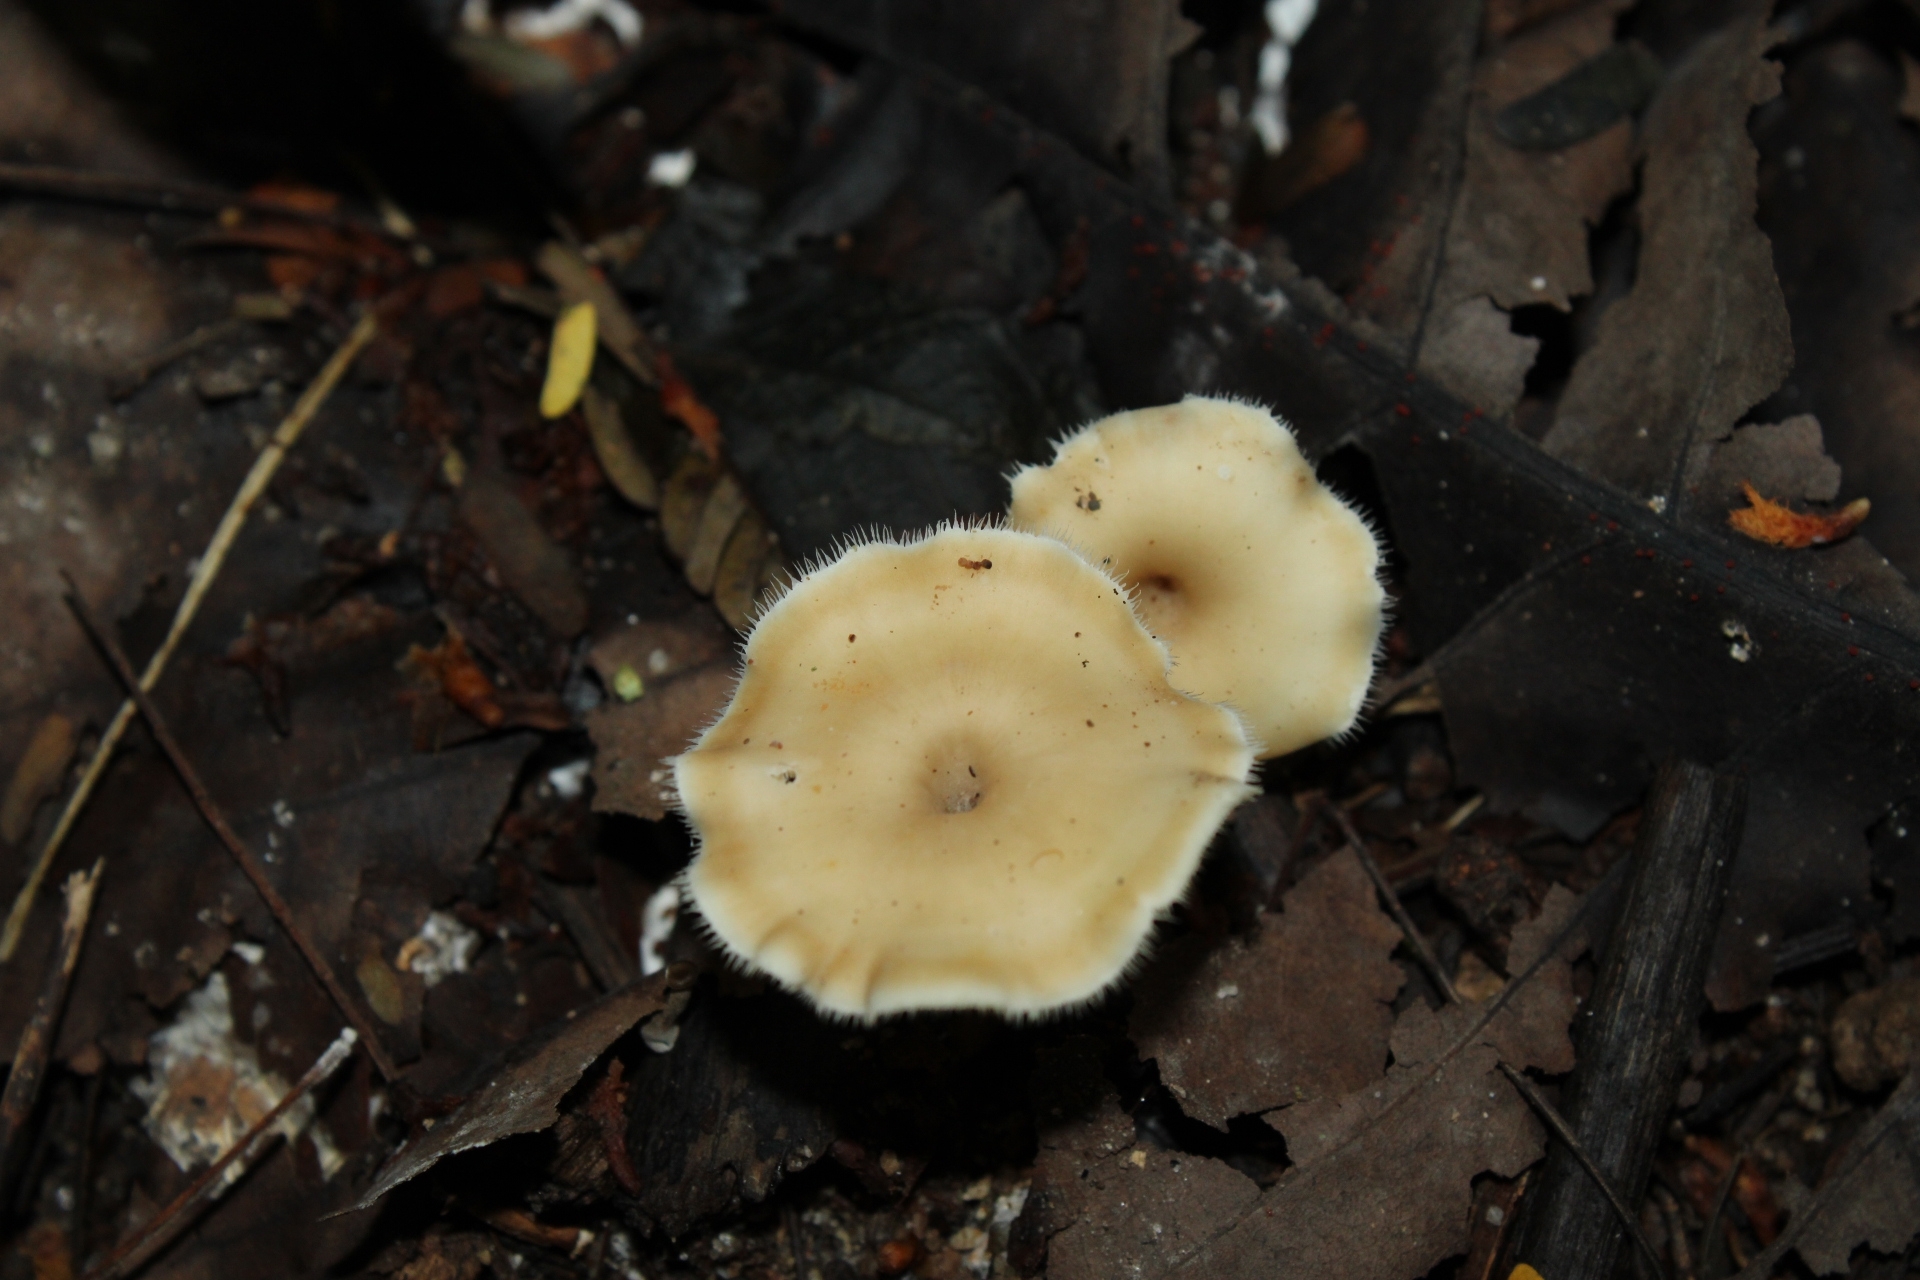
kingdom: Fungi
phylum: Basidiomycota
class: Agaricomycetes
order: Polyporales
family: Polyporaceae
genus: Lentinus
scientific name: Lentinus flexipes
